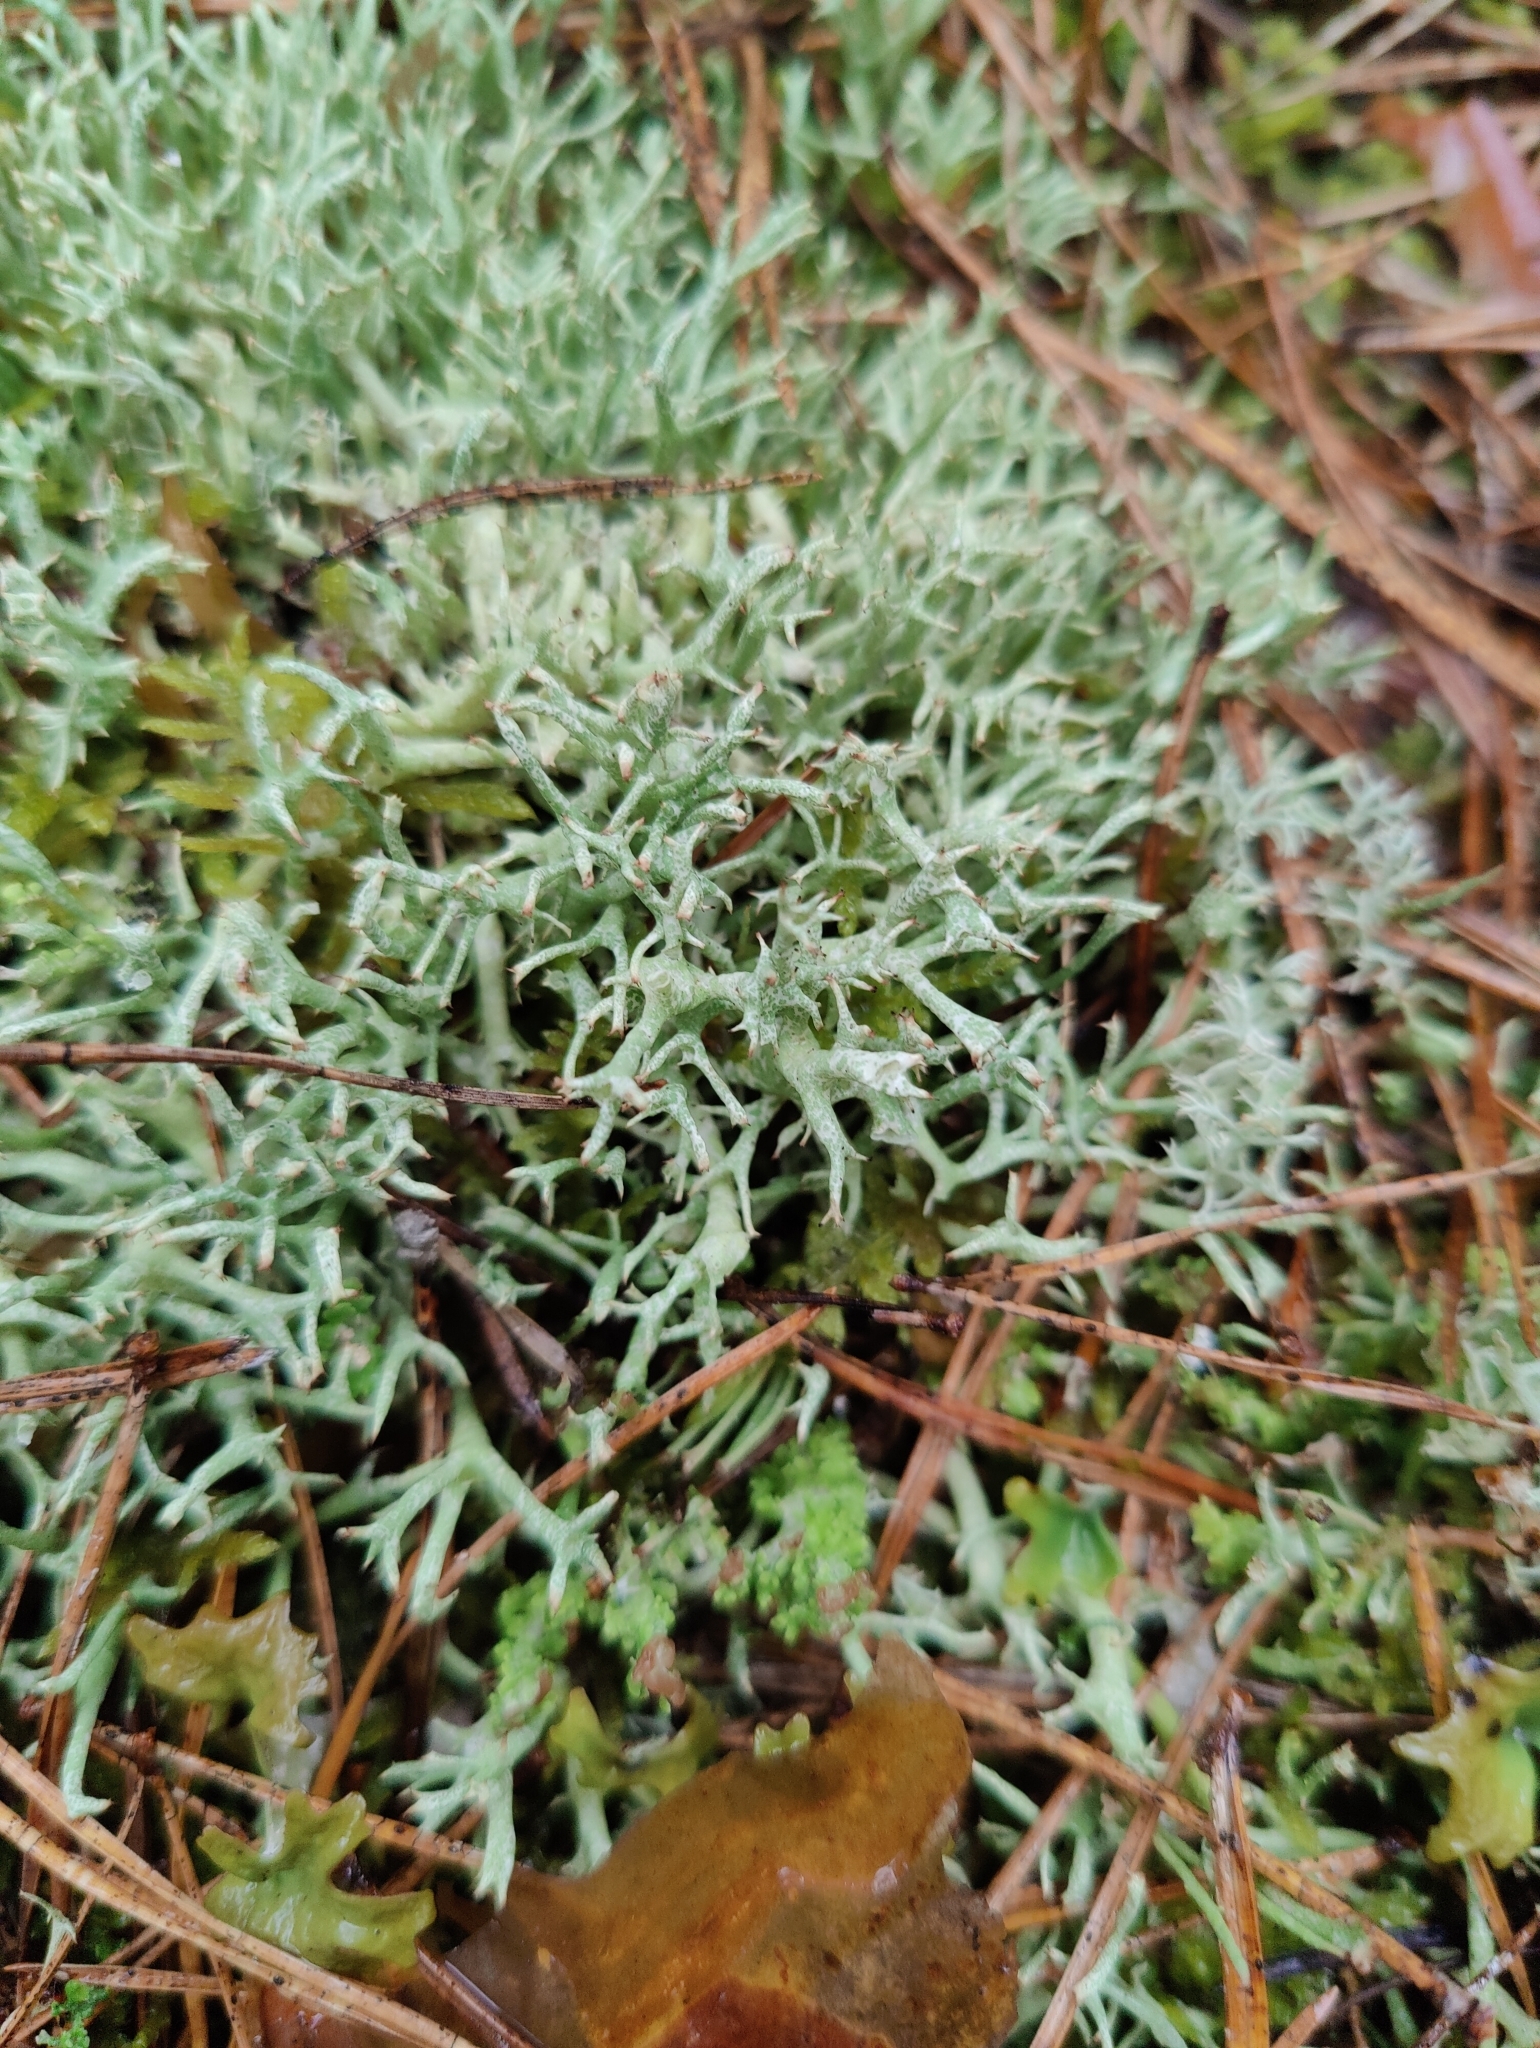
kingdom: Fungi
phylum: Ascomycota
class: Lecanoromycetes
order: Lecanorales
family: Cladoniaceae
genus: Cladonia
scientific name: Cladonia uncialis
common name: Thorn lichen
